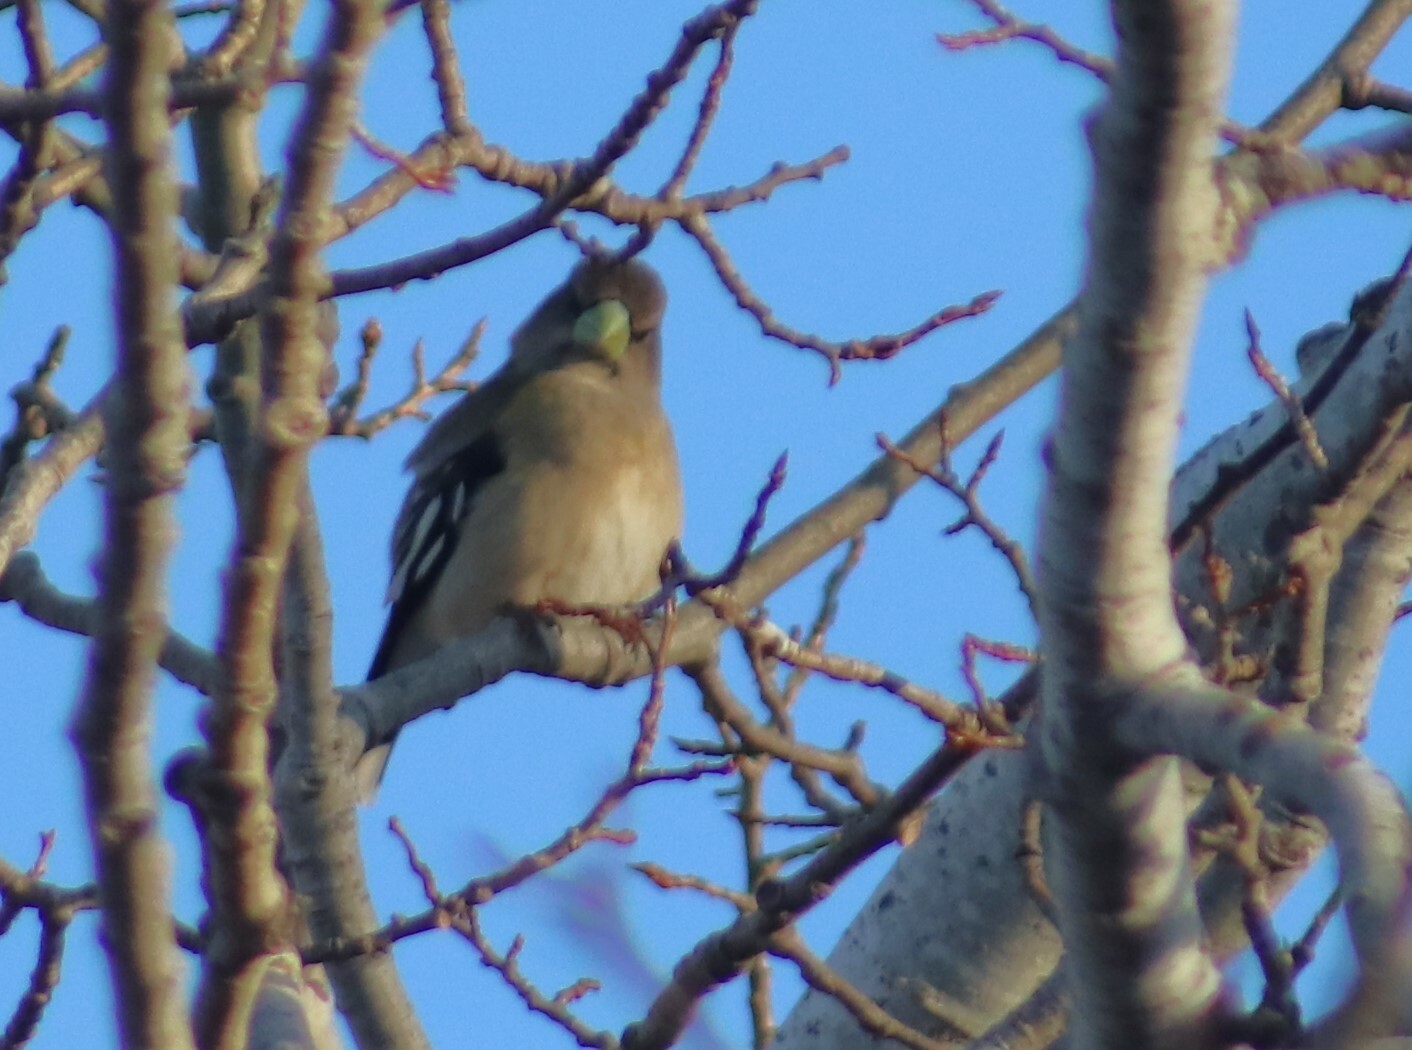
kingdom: Animalia
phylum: Chordata
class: Aves
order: Passeriformes
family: Fringillidae
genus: Hesperiphona
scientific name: Hesperiphona vespertina
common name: Evening grosbeak
